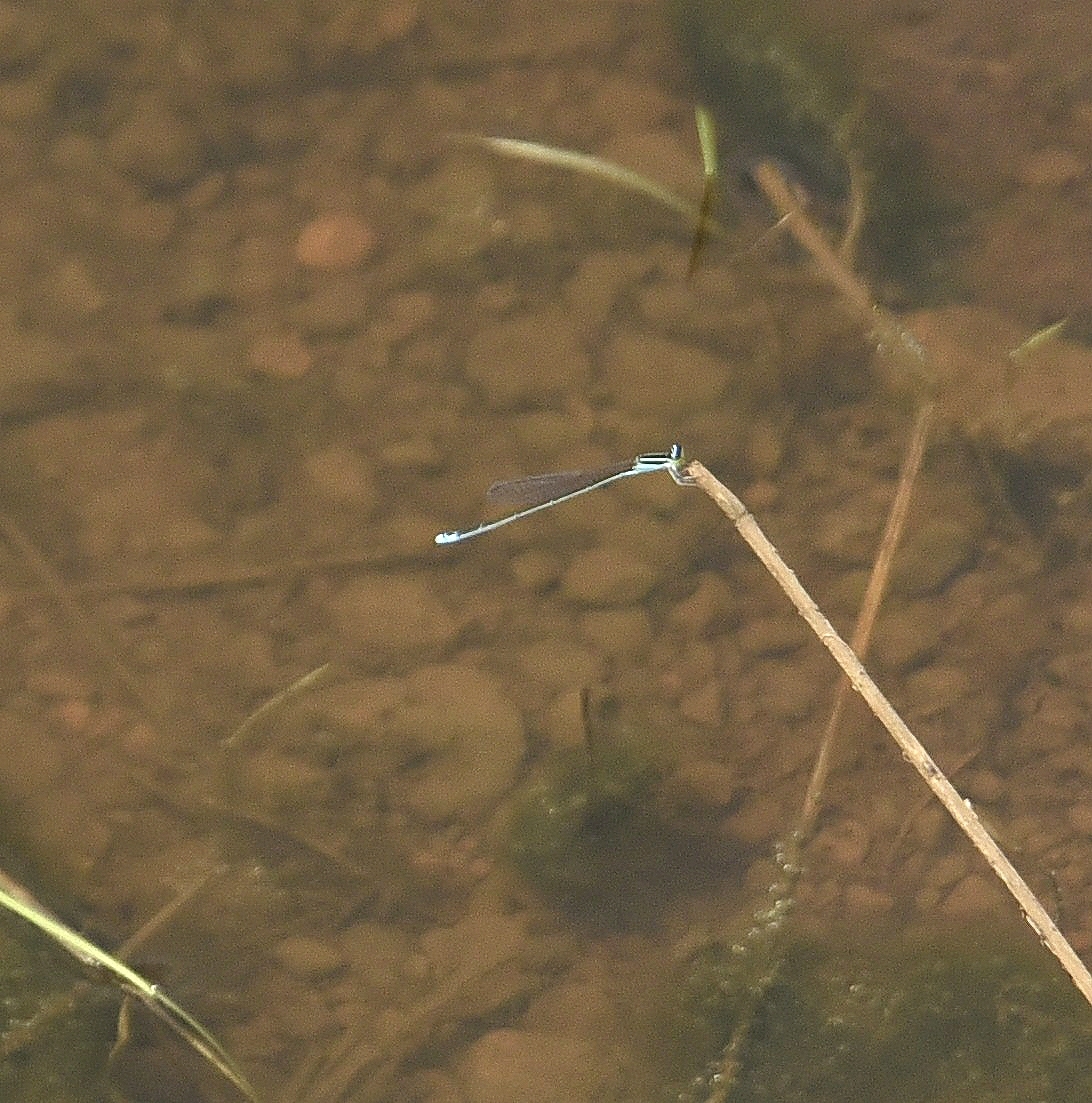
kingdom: Animalia
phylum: Arthropoda
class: Insecta
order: Odonata
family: Coenagrionidae
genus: Aciagrion
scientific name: Aciagrion occidentale
